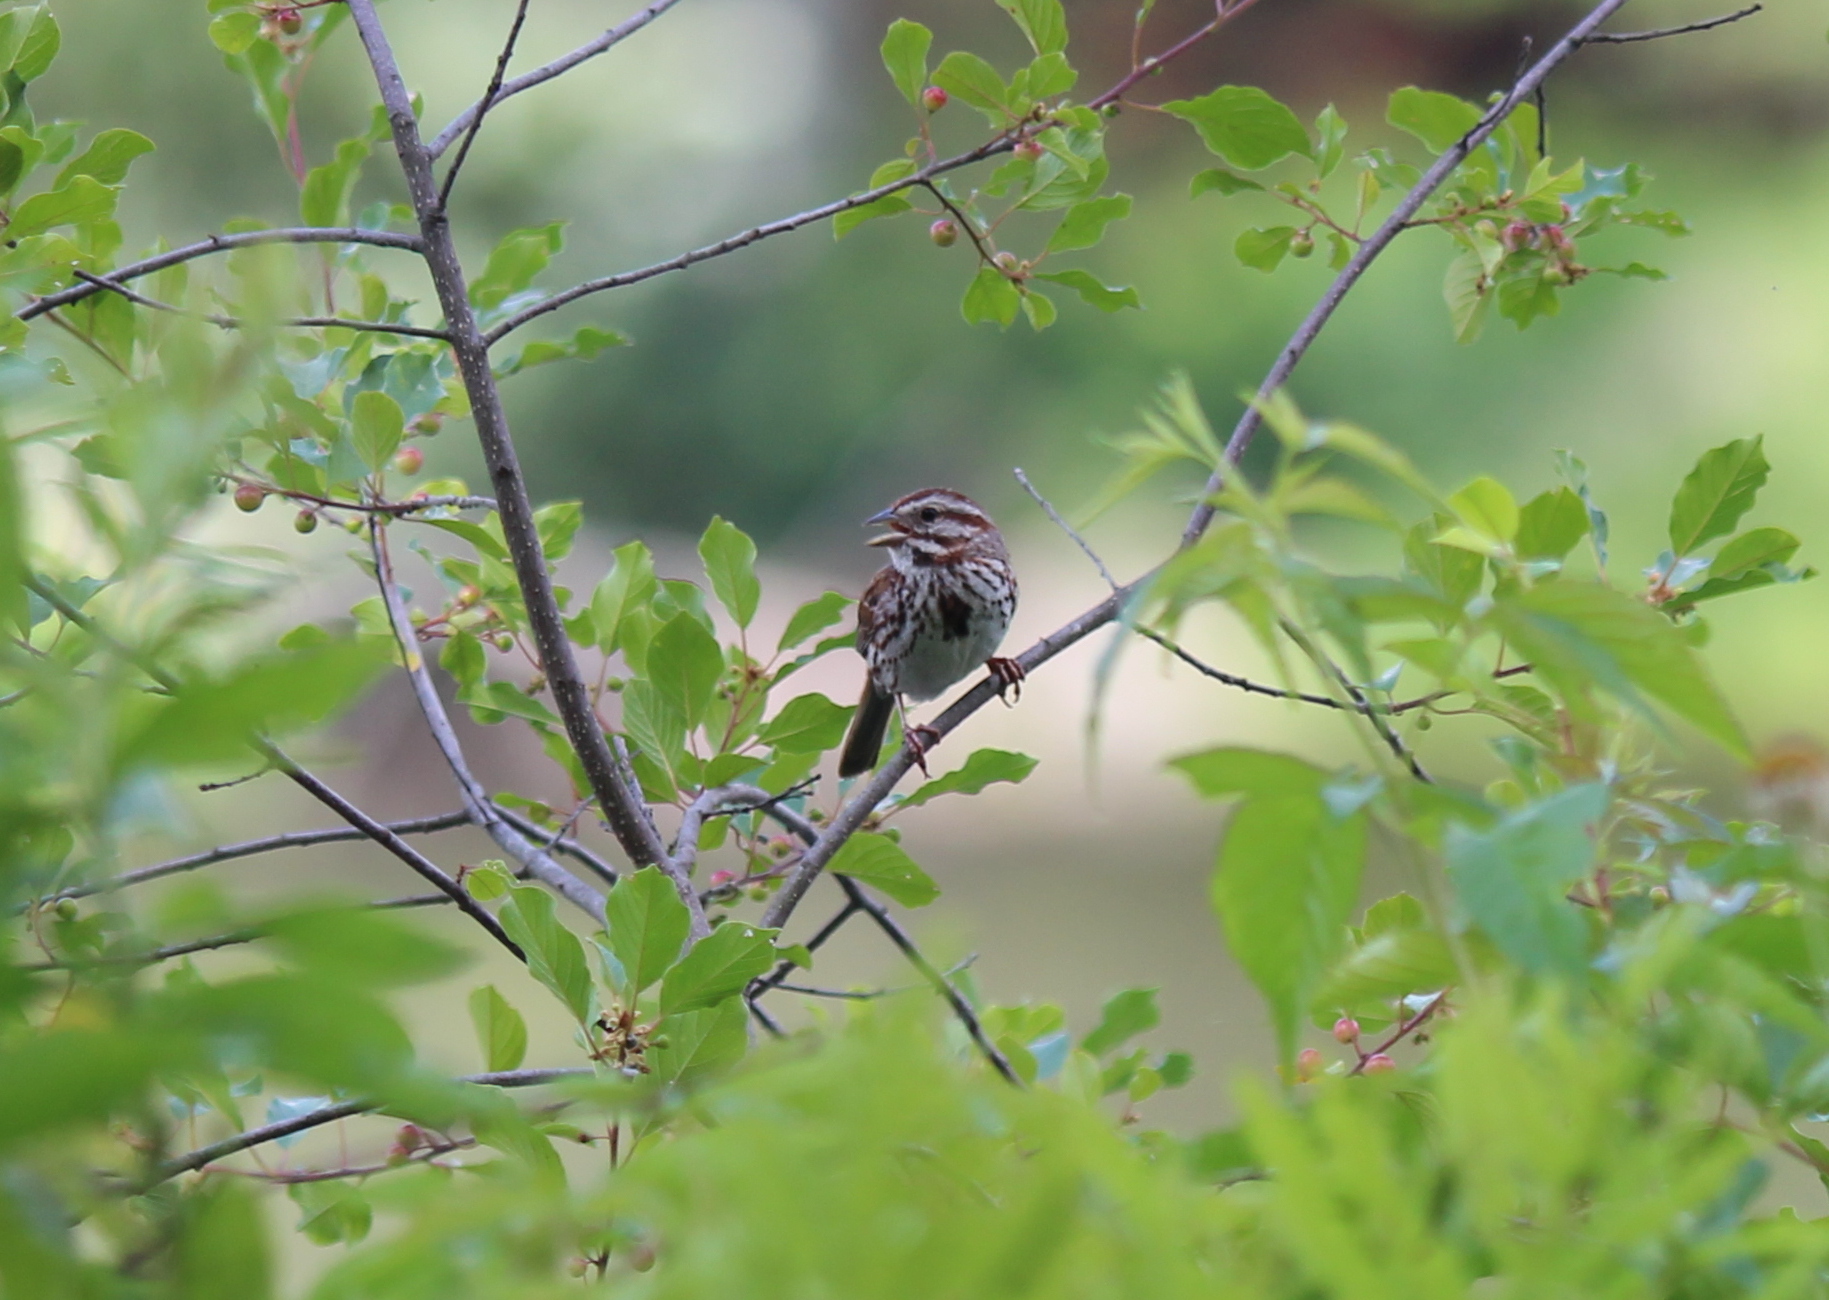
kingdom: Animalia
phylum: Chordata
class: Aves
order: Passeriformes
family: Passerellidae
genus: Melospiza
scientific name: Melospiza melodia
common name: Song sparrow
